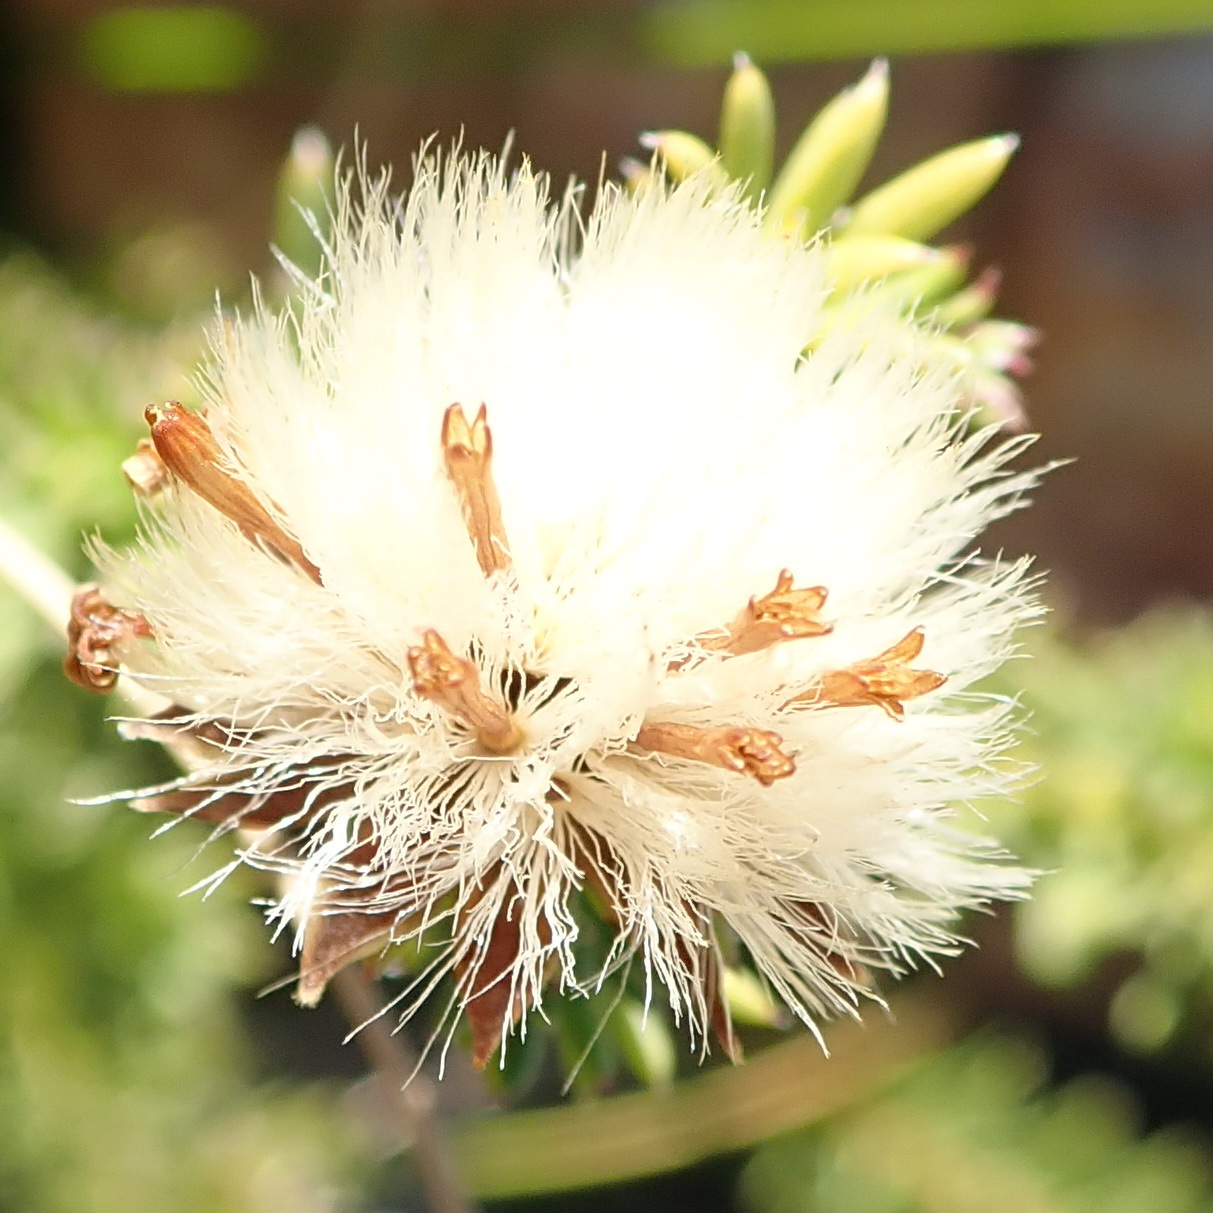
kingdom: Plantae
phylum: Tracheophyta
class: Magnoliopsida
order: Asterales
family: Asteraceae
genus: Senecio
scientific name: Senecio pinifolius
